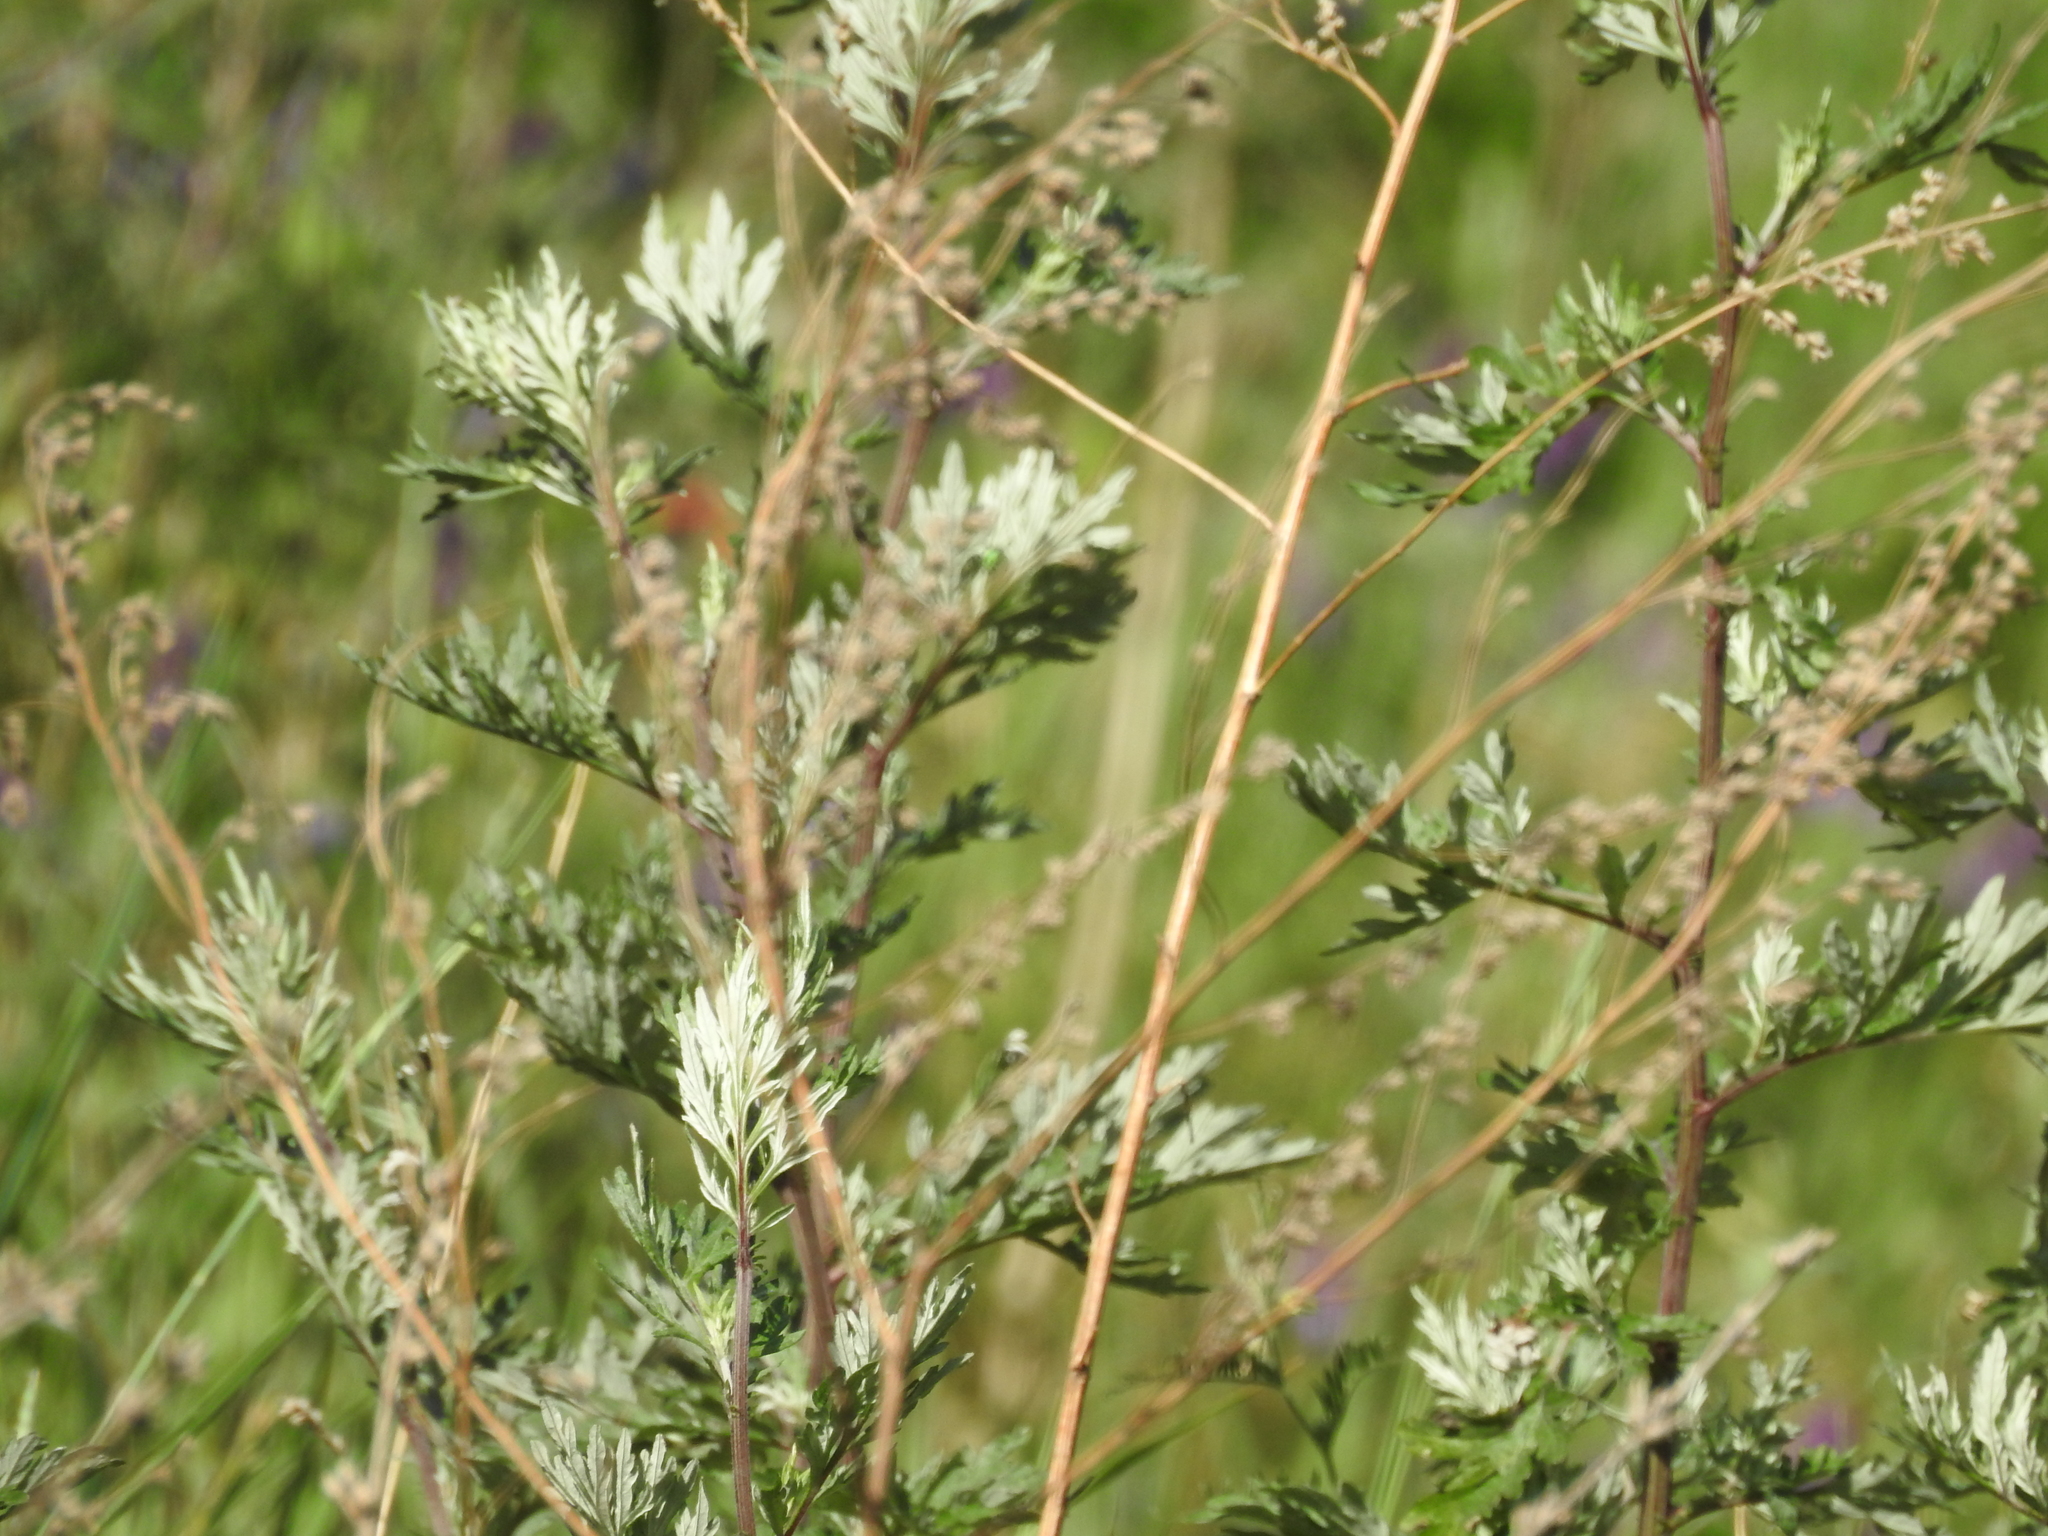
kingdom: Plantae
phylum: Tracheophyta
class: Magnoliopsida
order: Asterales
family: Asteraceae
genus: Artemisia
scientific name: Artemisia vulgaris
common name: Mugwort
